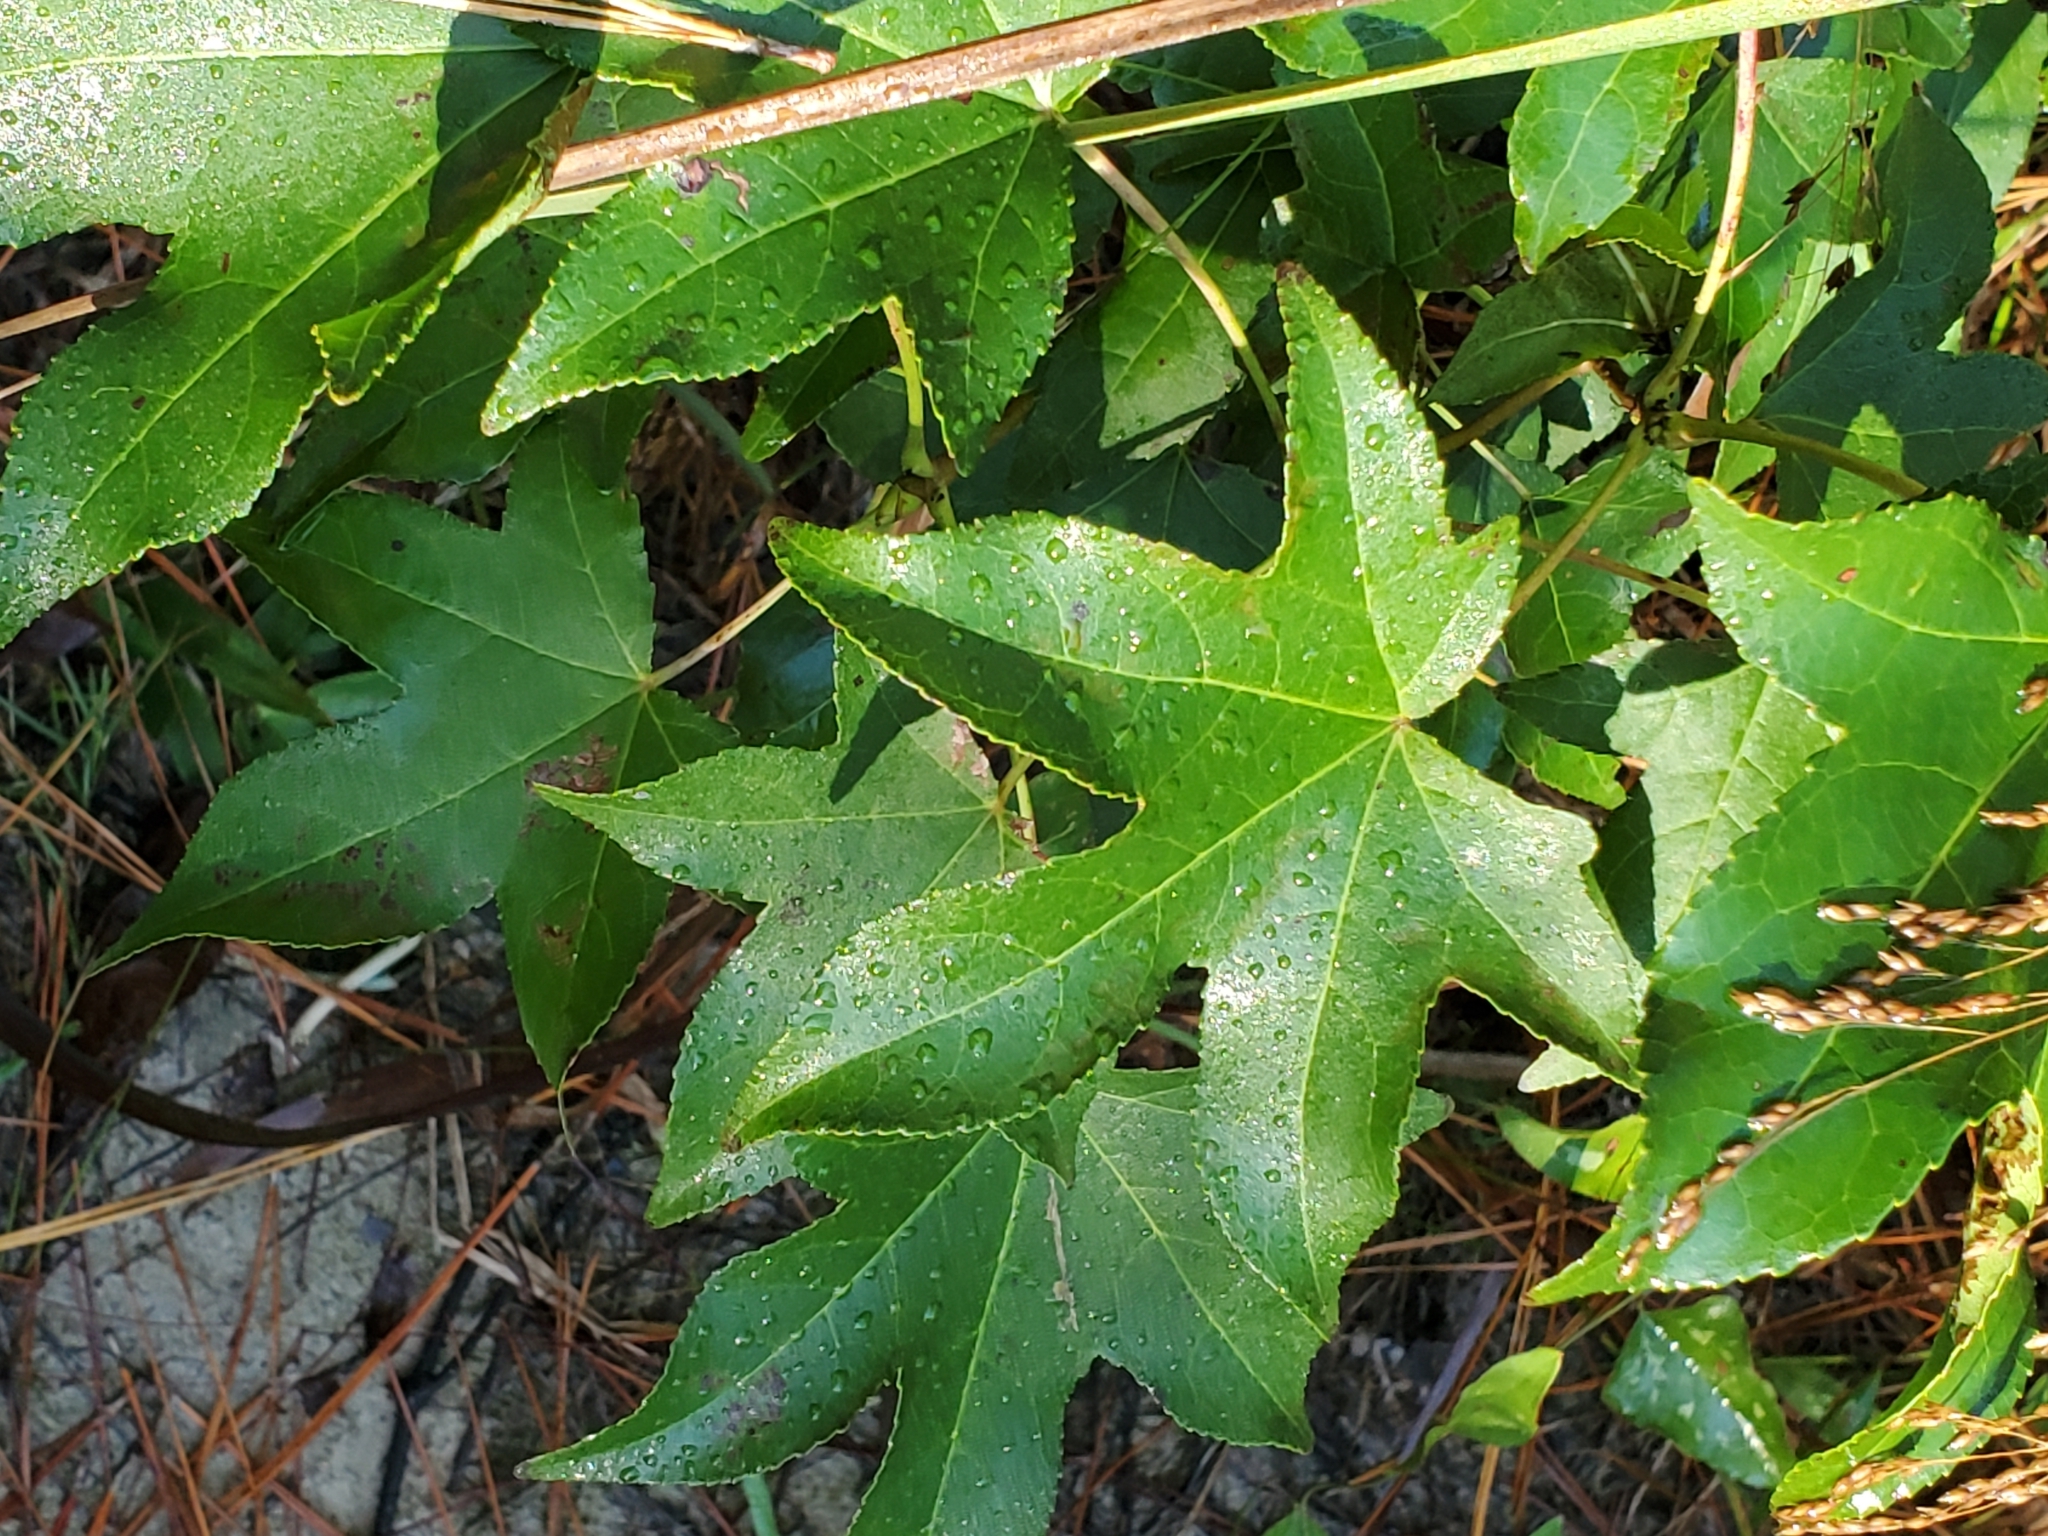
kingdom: Plantae
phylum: Tracheophyta
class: Magnoliopsida
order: Saxifragales
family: Altingiaceae
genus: Liquidambar
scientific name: Liquidambar styraciflua
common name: Sweet gum
